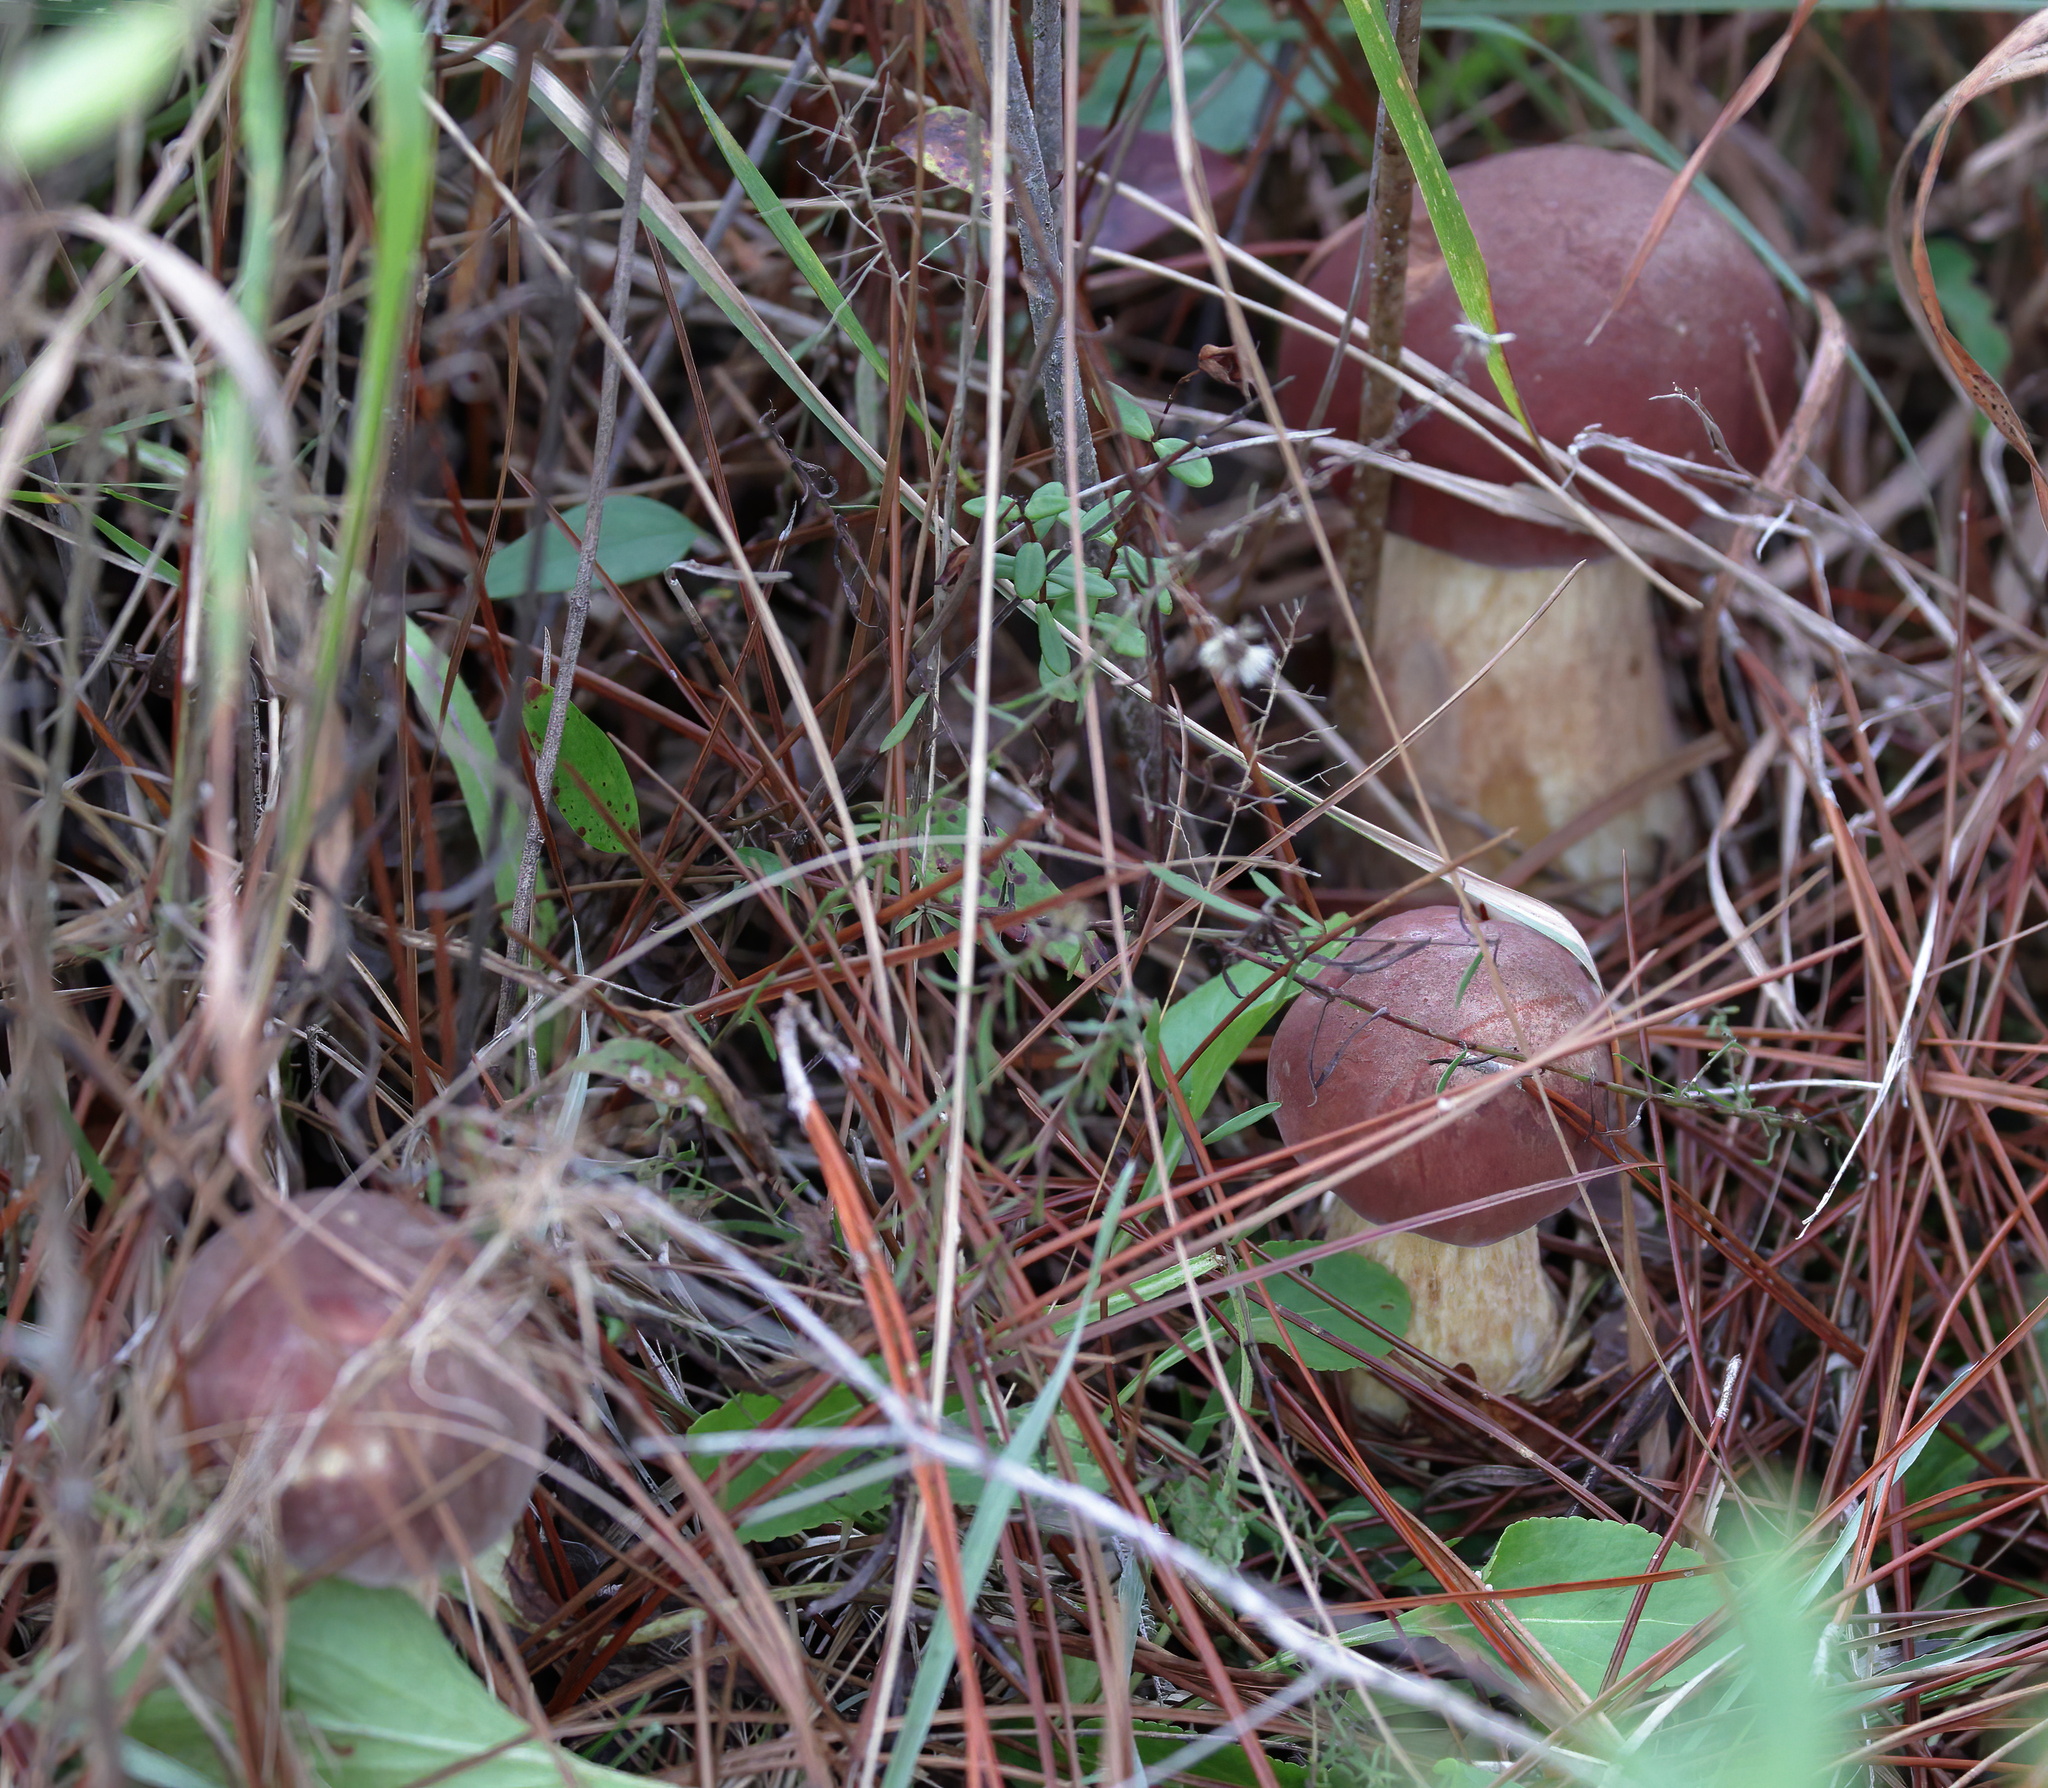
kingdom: Fungi
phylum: Basidiomycota
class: Agaricomycetes
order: Boletales
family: Boletaceae
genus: Boletus
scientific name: Boletus pseudopinophilus
